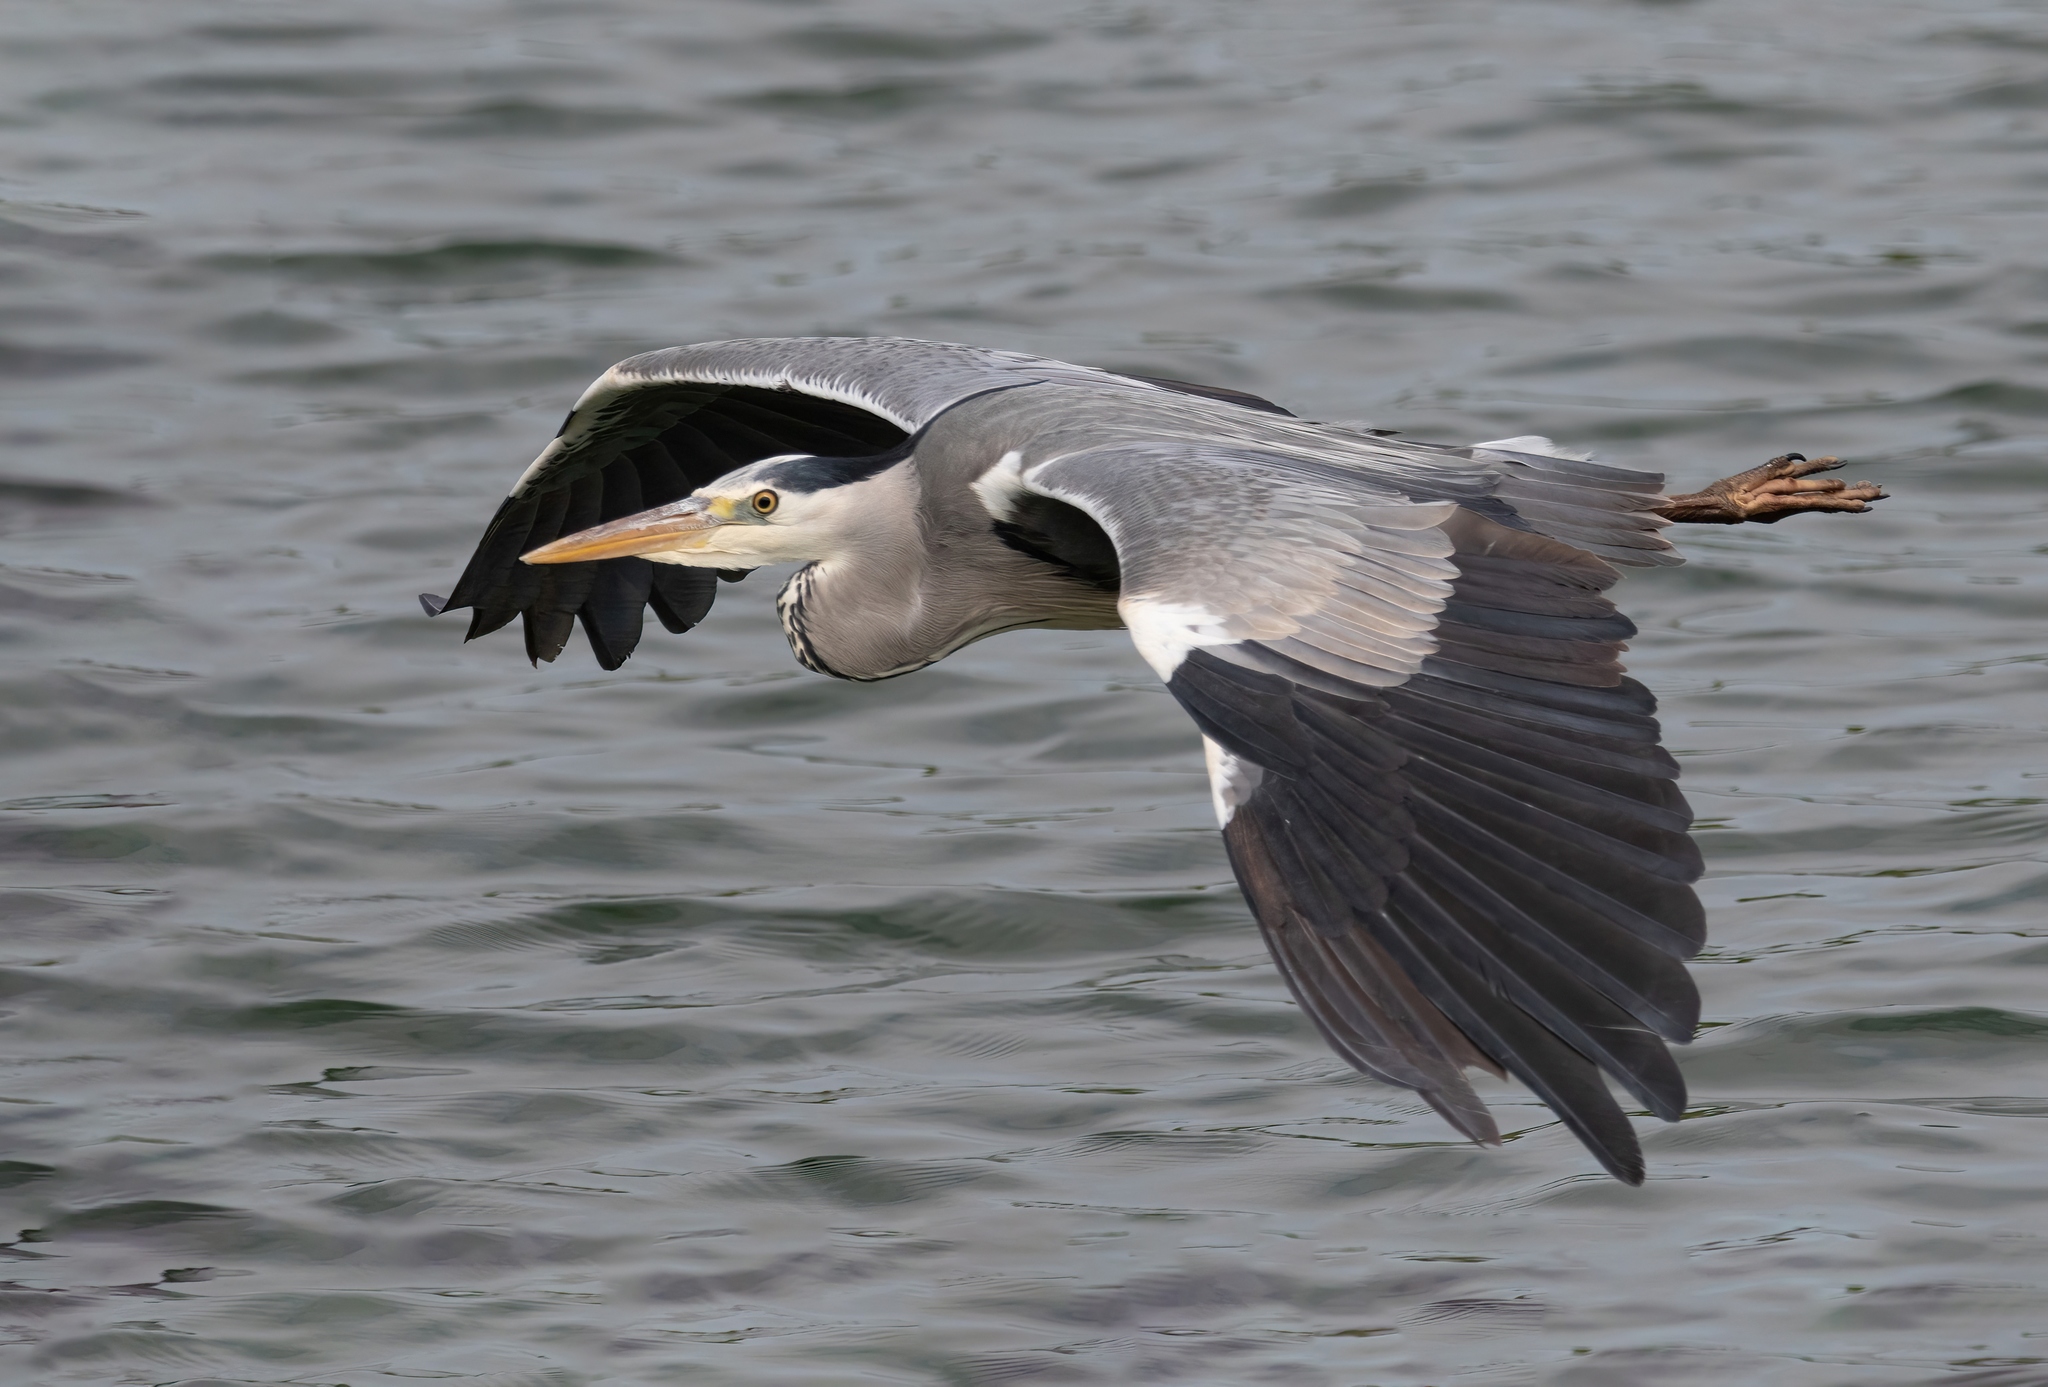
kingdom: Animalia
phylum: Chordata
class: Aves
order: Pelecaniformes
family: Ardeidae
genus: Ardea
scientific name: Ardea cinerea
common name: Grey heron
